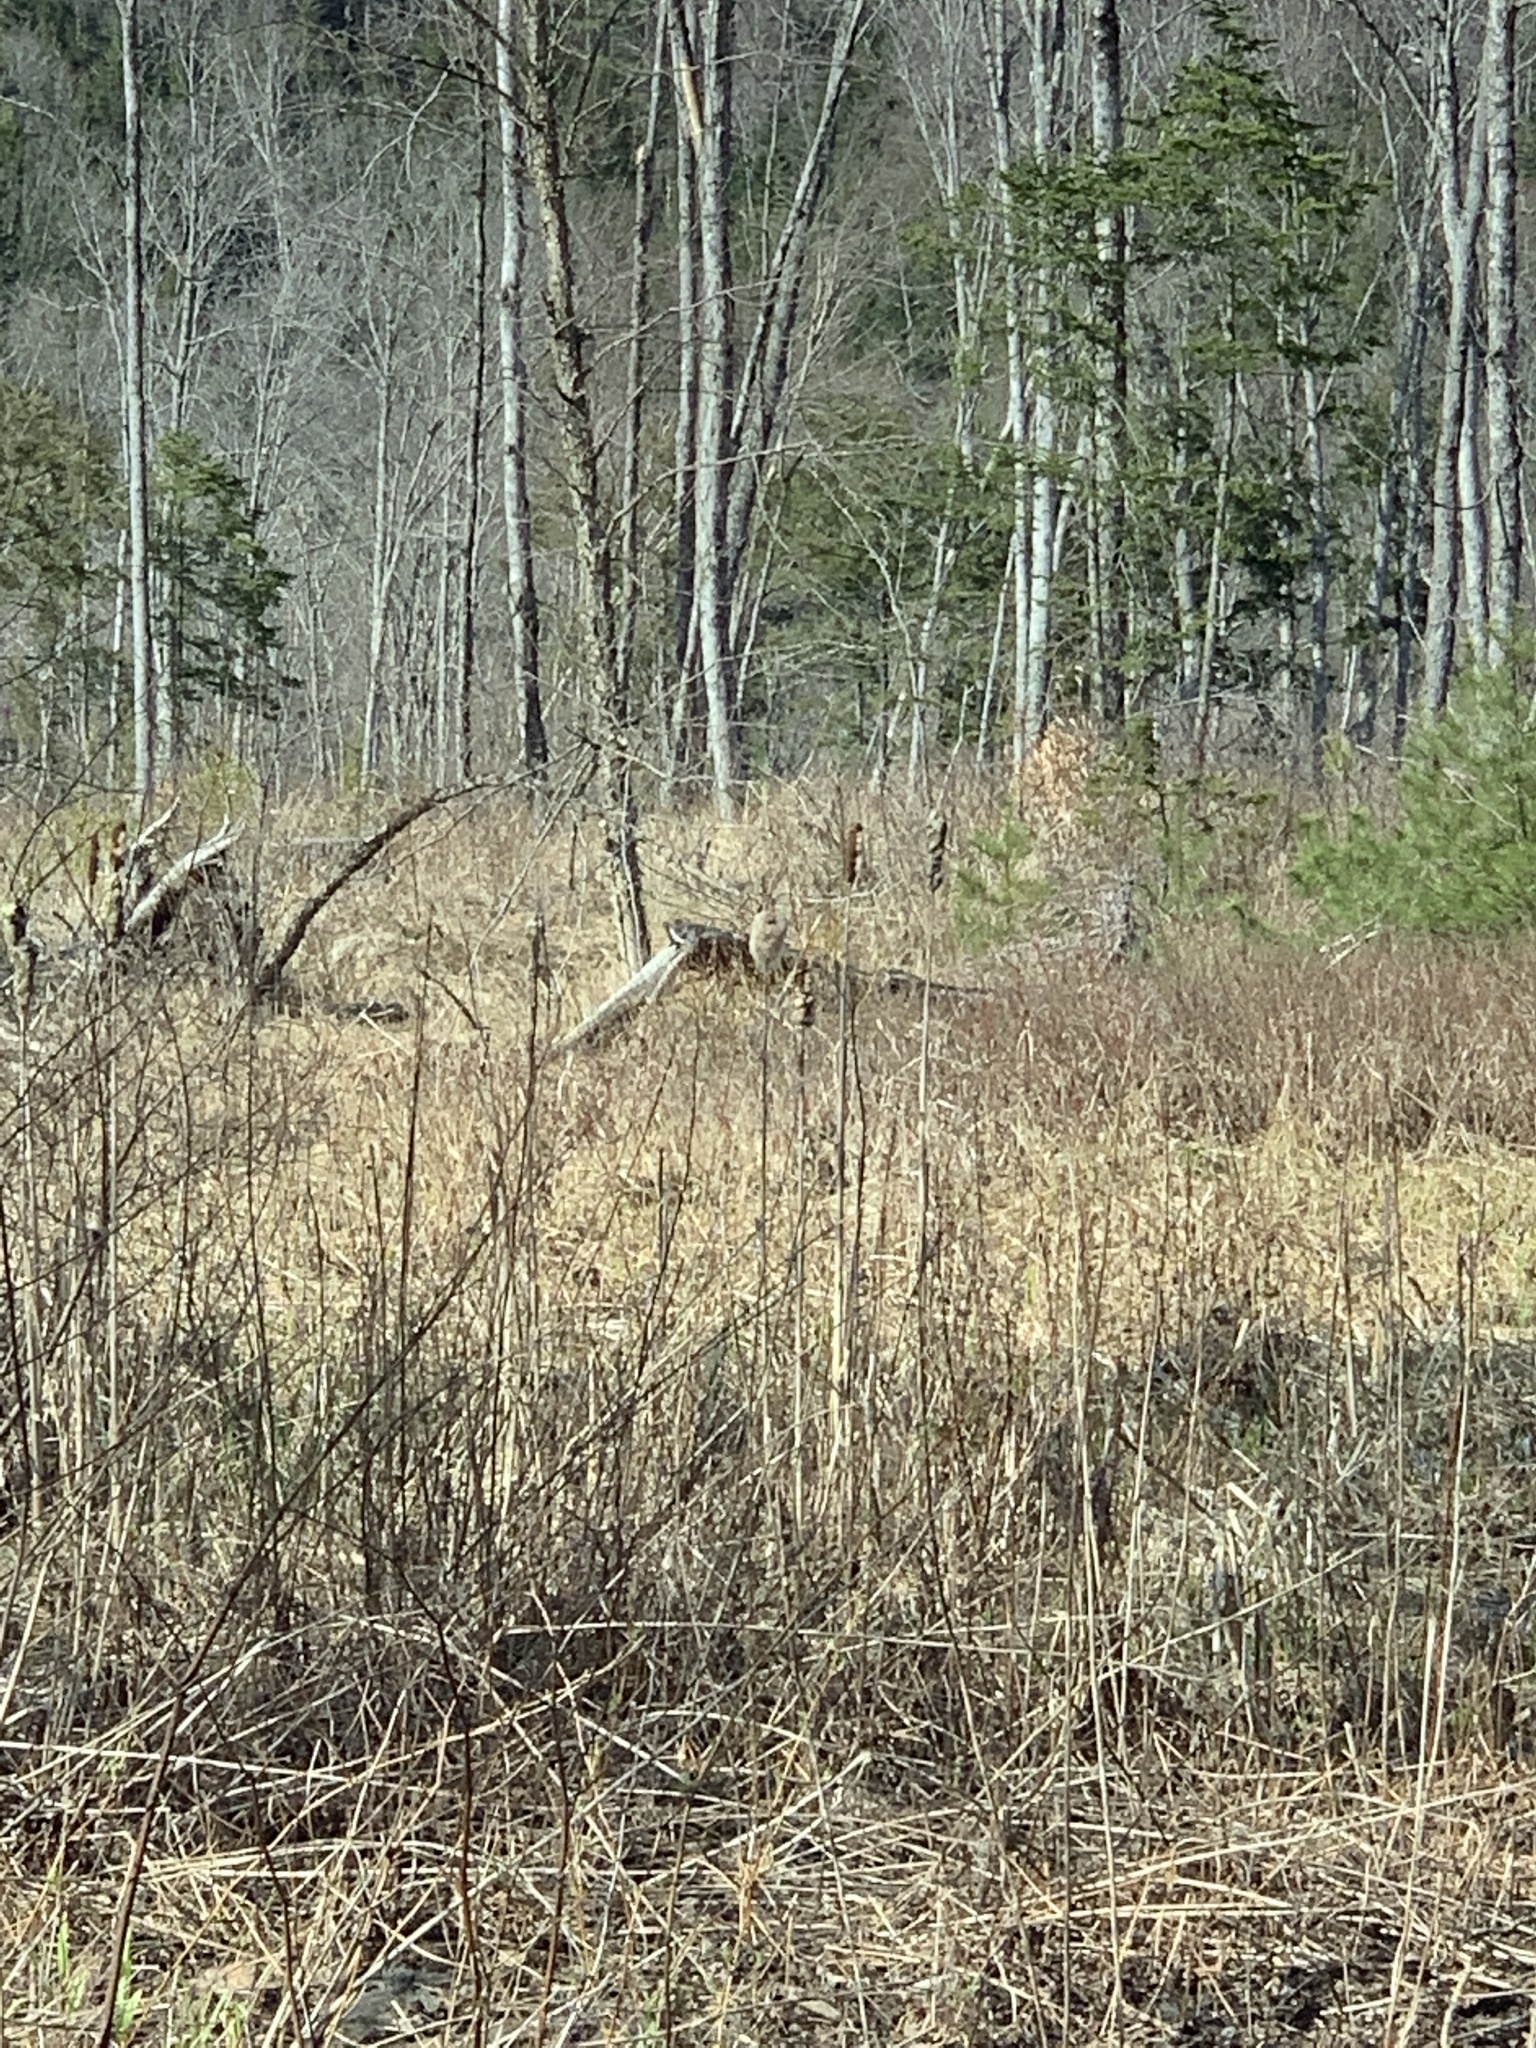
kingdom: Plantae
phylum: Tracheophyta
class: Liliopsida
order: Poales
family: Typhaceae
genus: Typha
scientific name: Typha
